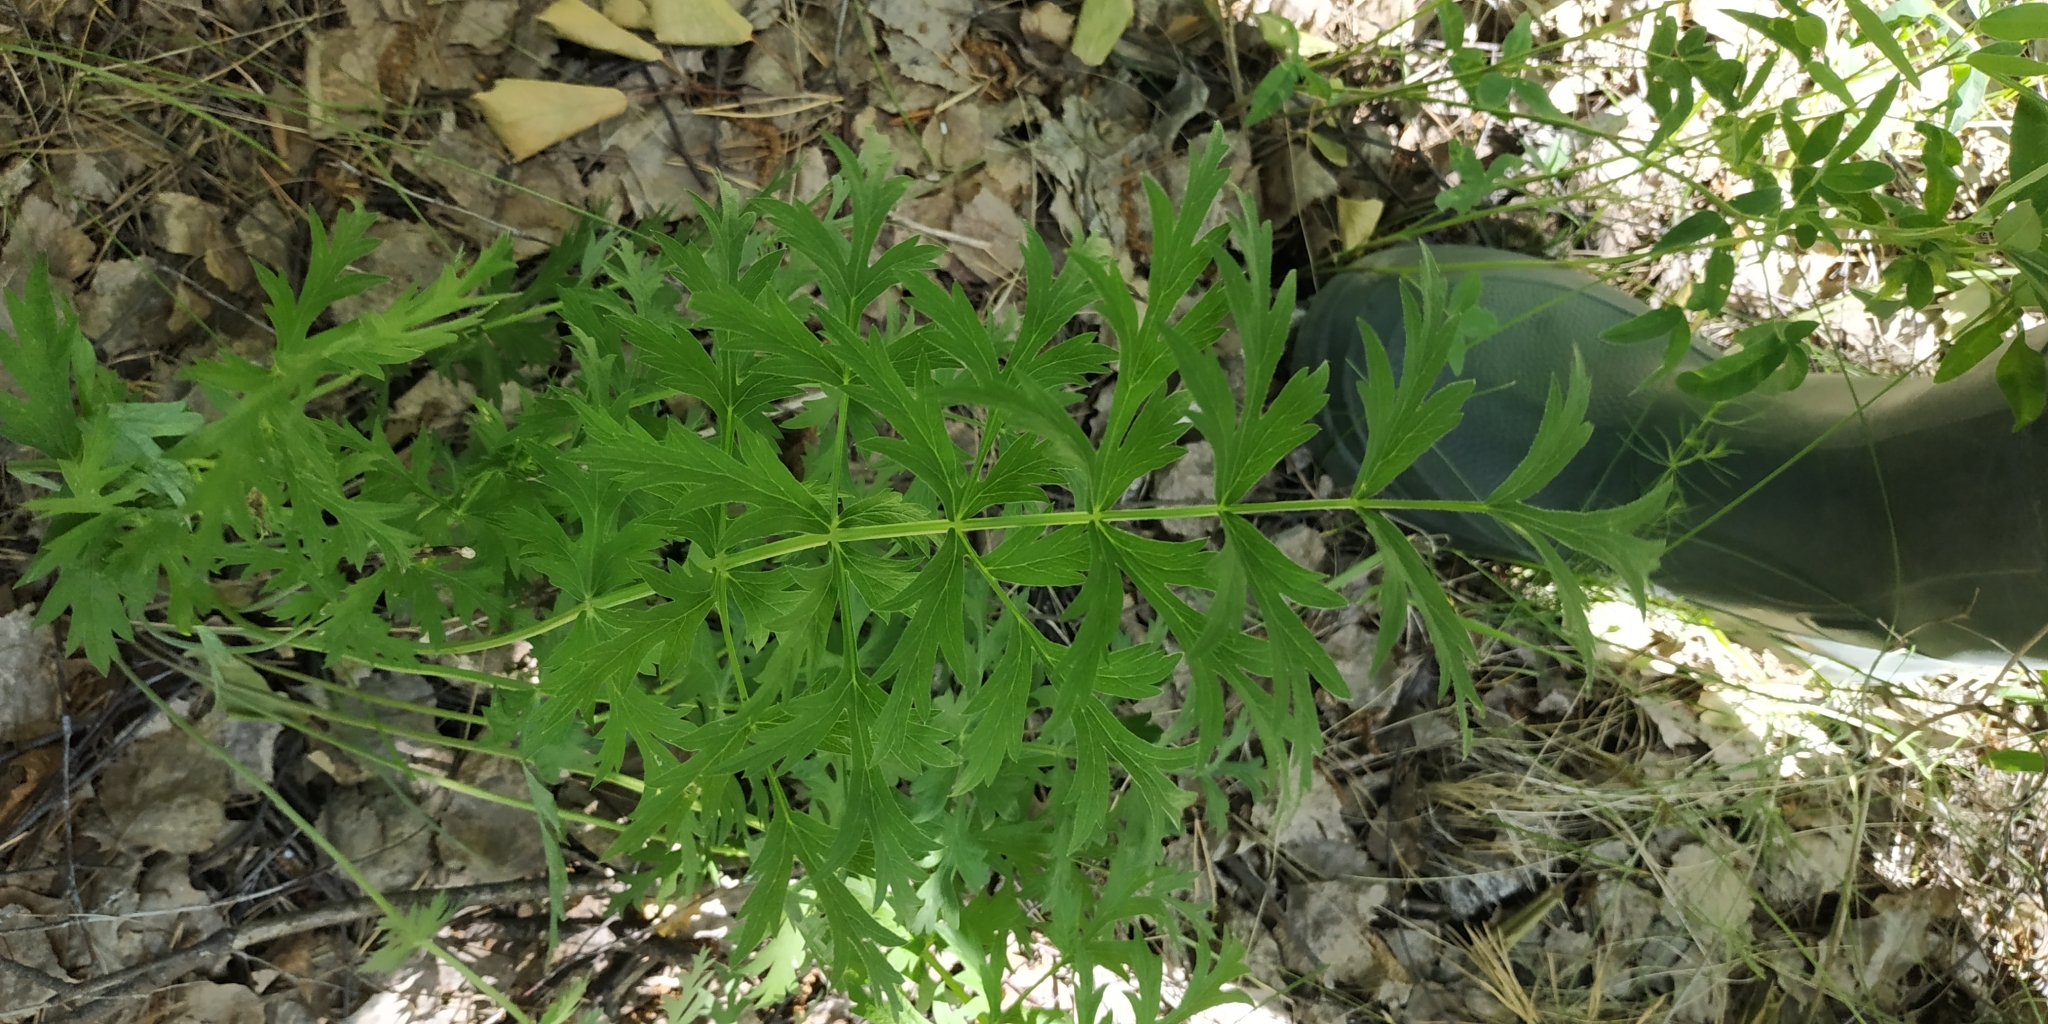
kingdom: Plantae
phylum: Tracheophyta
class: Magnoliopsida
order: Apiales
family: Apiaceae
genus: Seseli
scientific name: Seseli libanotis
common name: Mooncarrot
